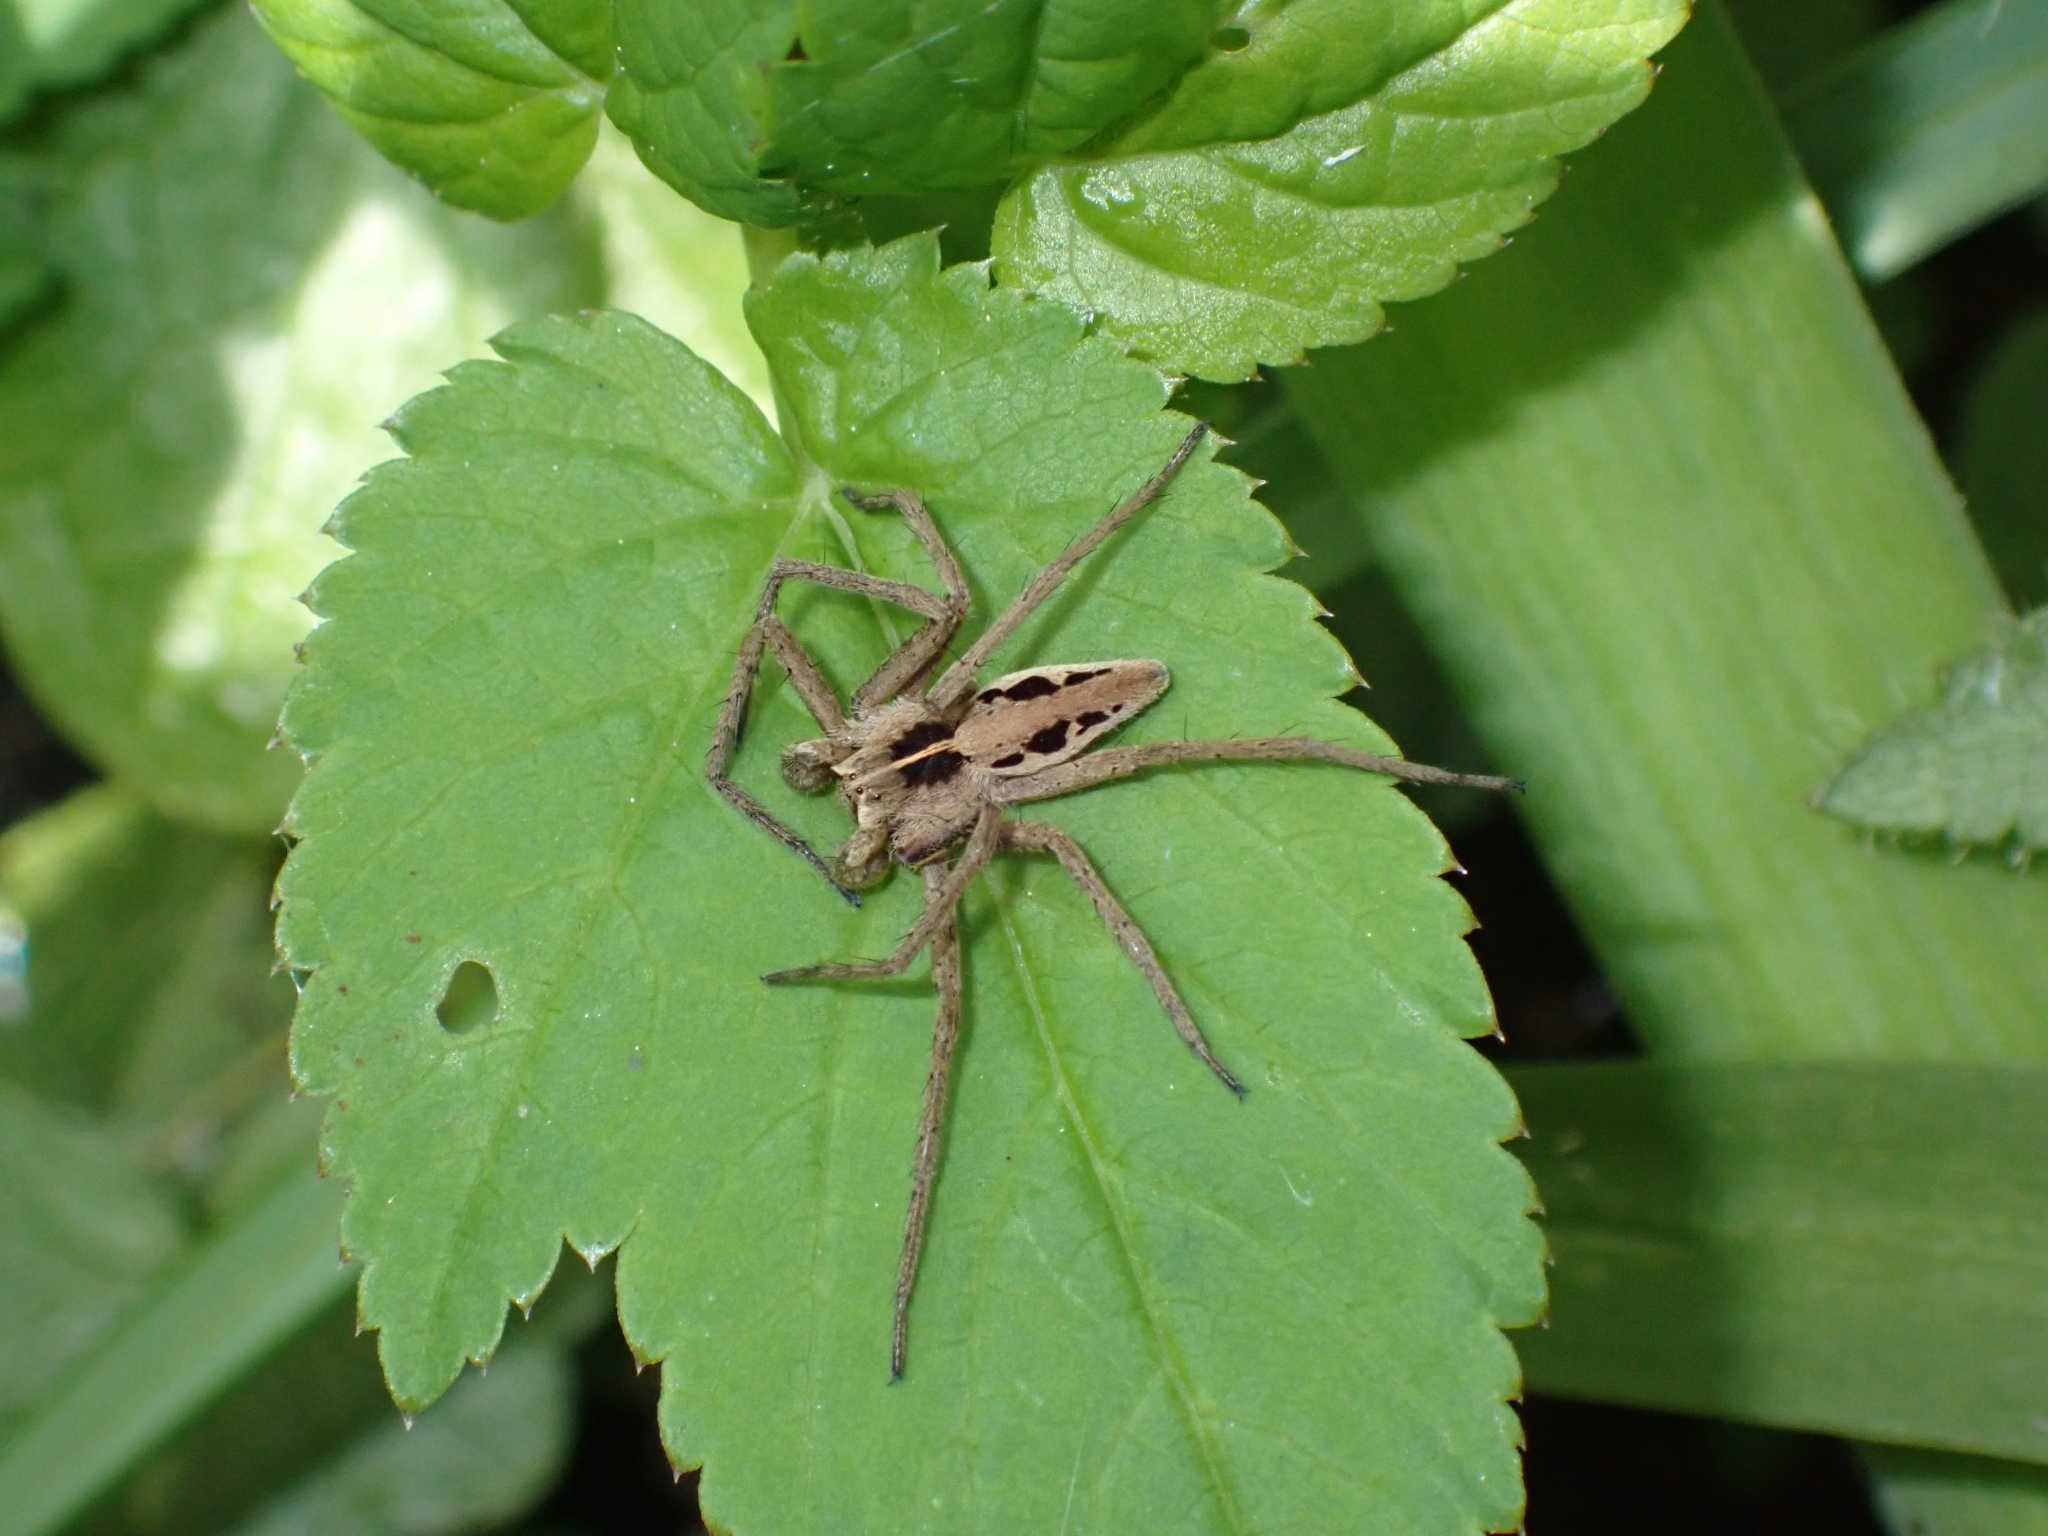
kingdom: Animalia
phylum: Arthropoda
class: Arachnida
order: Araneae
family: Pisauridae
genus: Pisaura
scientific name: Pisaura mirabilis
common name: Tent spider
